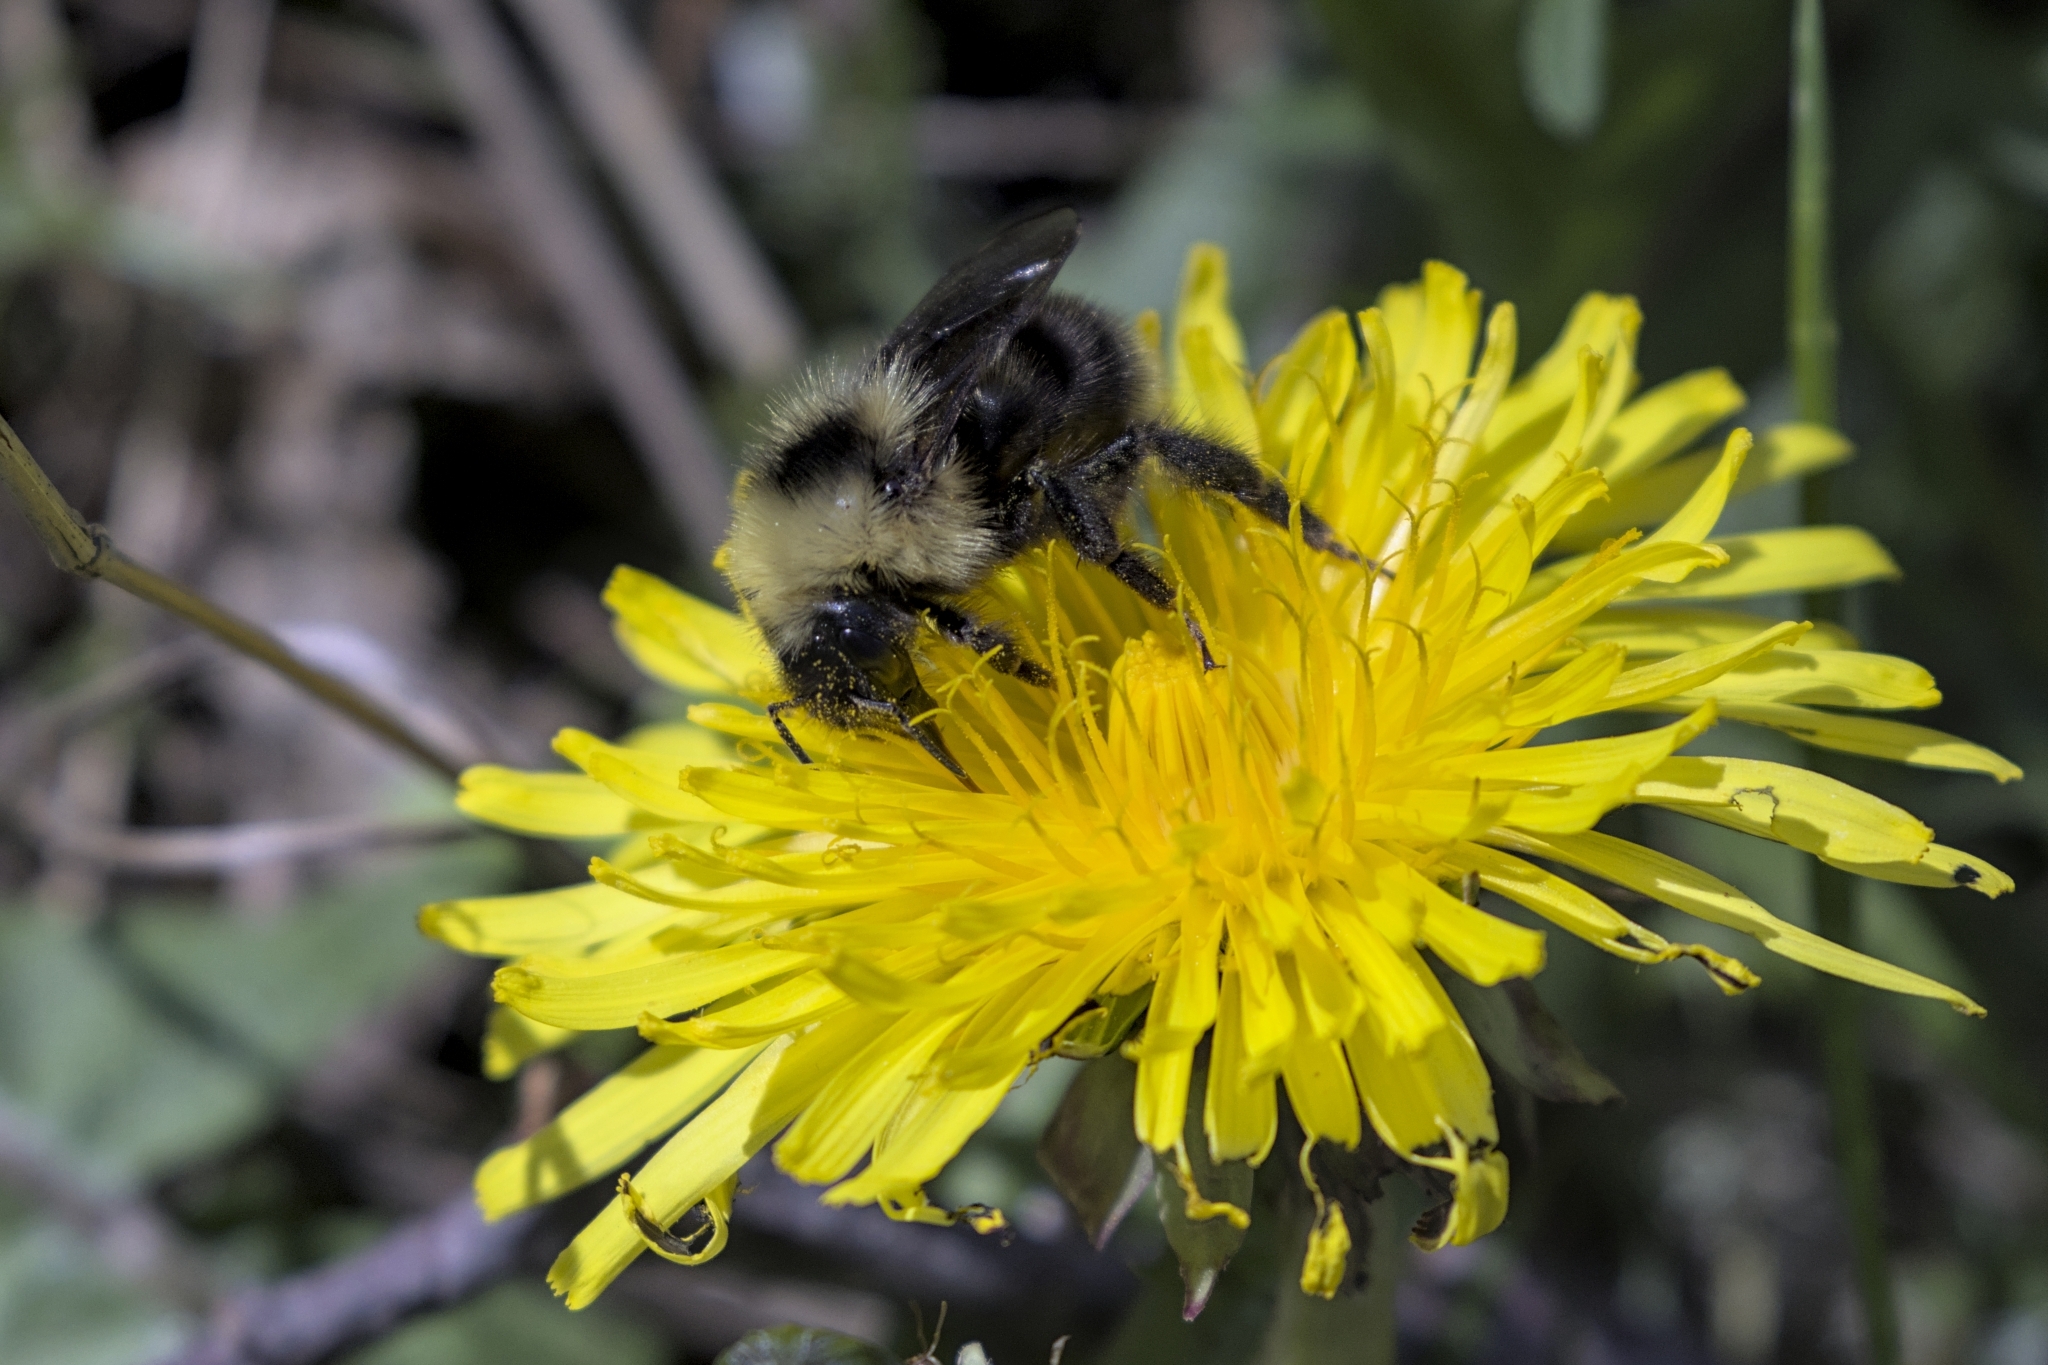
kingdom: Animalia
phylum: Arthropoda
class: Insecta
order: Hymenoptera
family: Apidae
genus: Bombus
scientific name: Bombus flavidus
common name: Fernald cuckoo bumble bee
